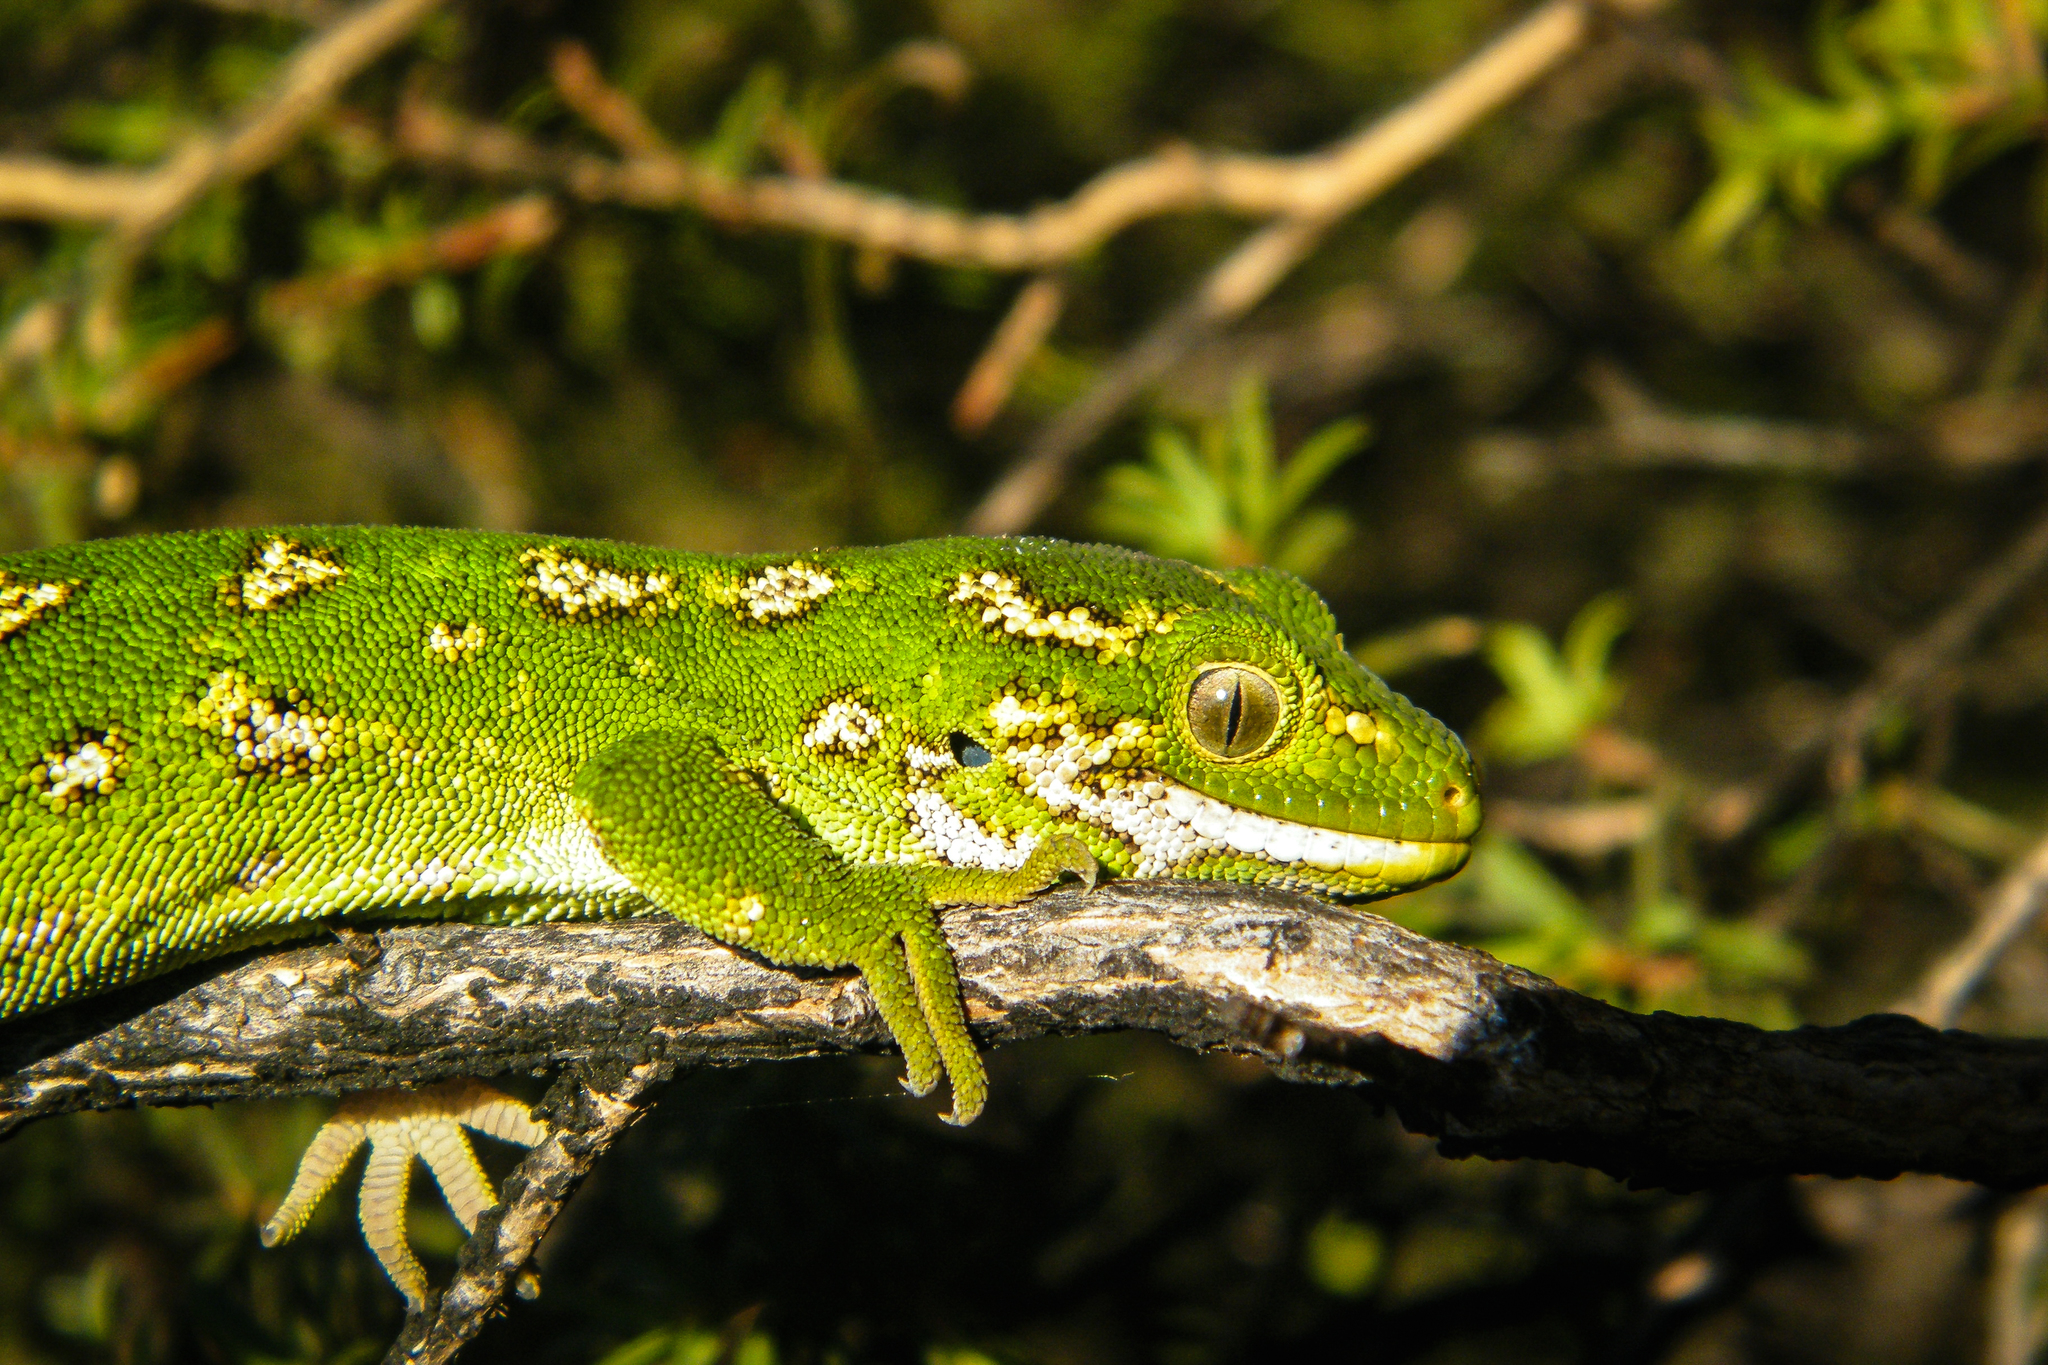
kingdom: Animalia
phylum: Chordata
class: Squamata
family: Diplodactylidae
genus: Naultinus
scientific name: Naultinus gemmeus
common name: Jewelled gecko
